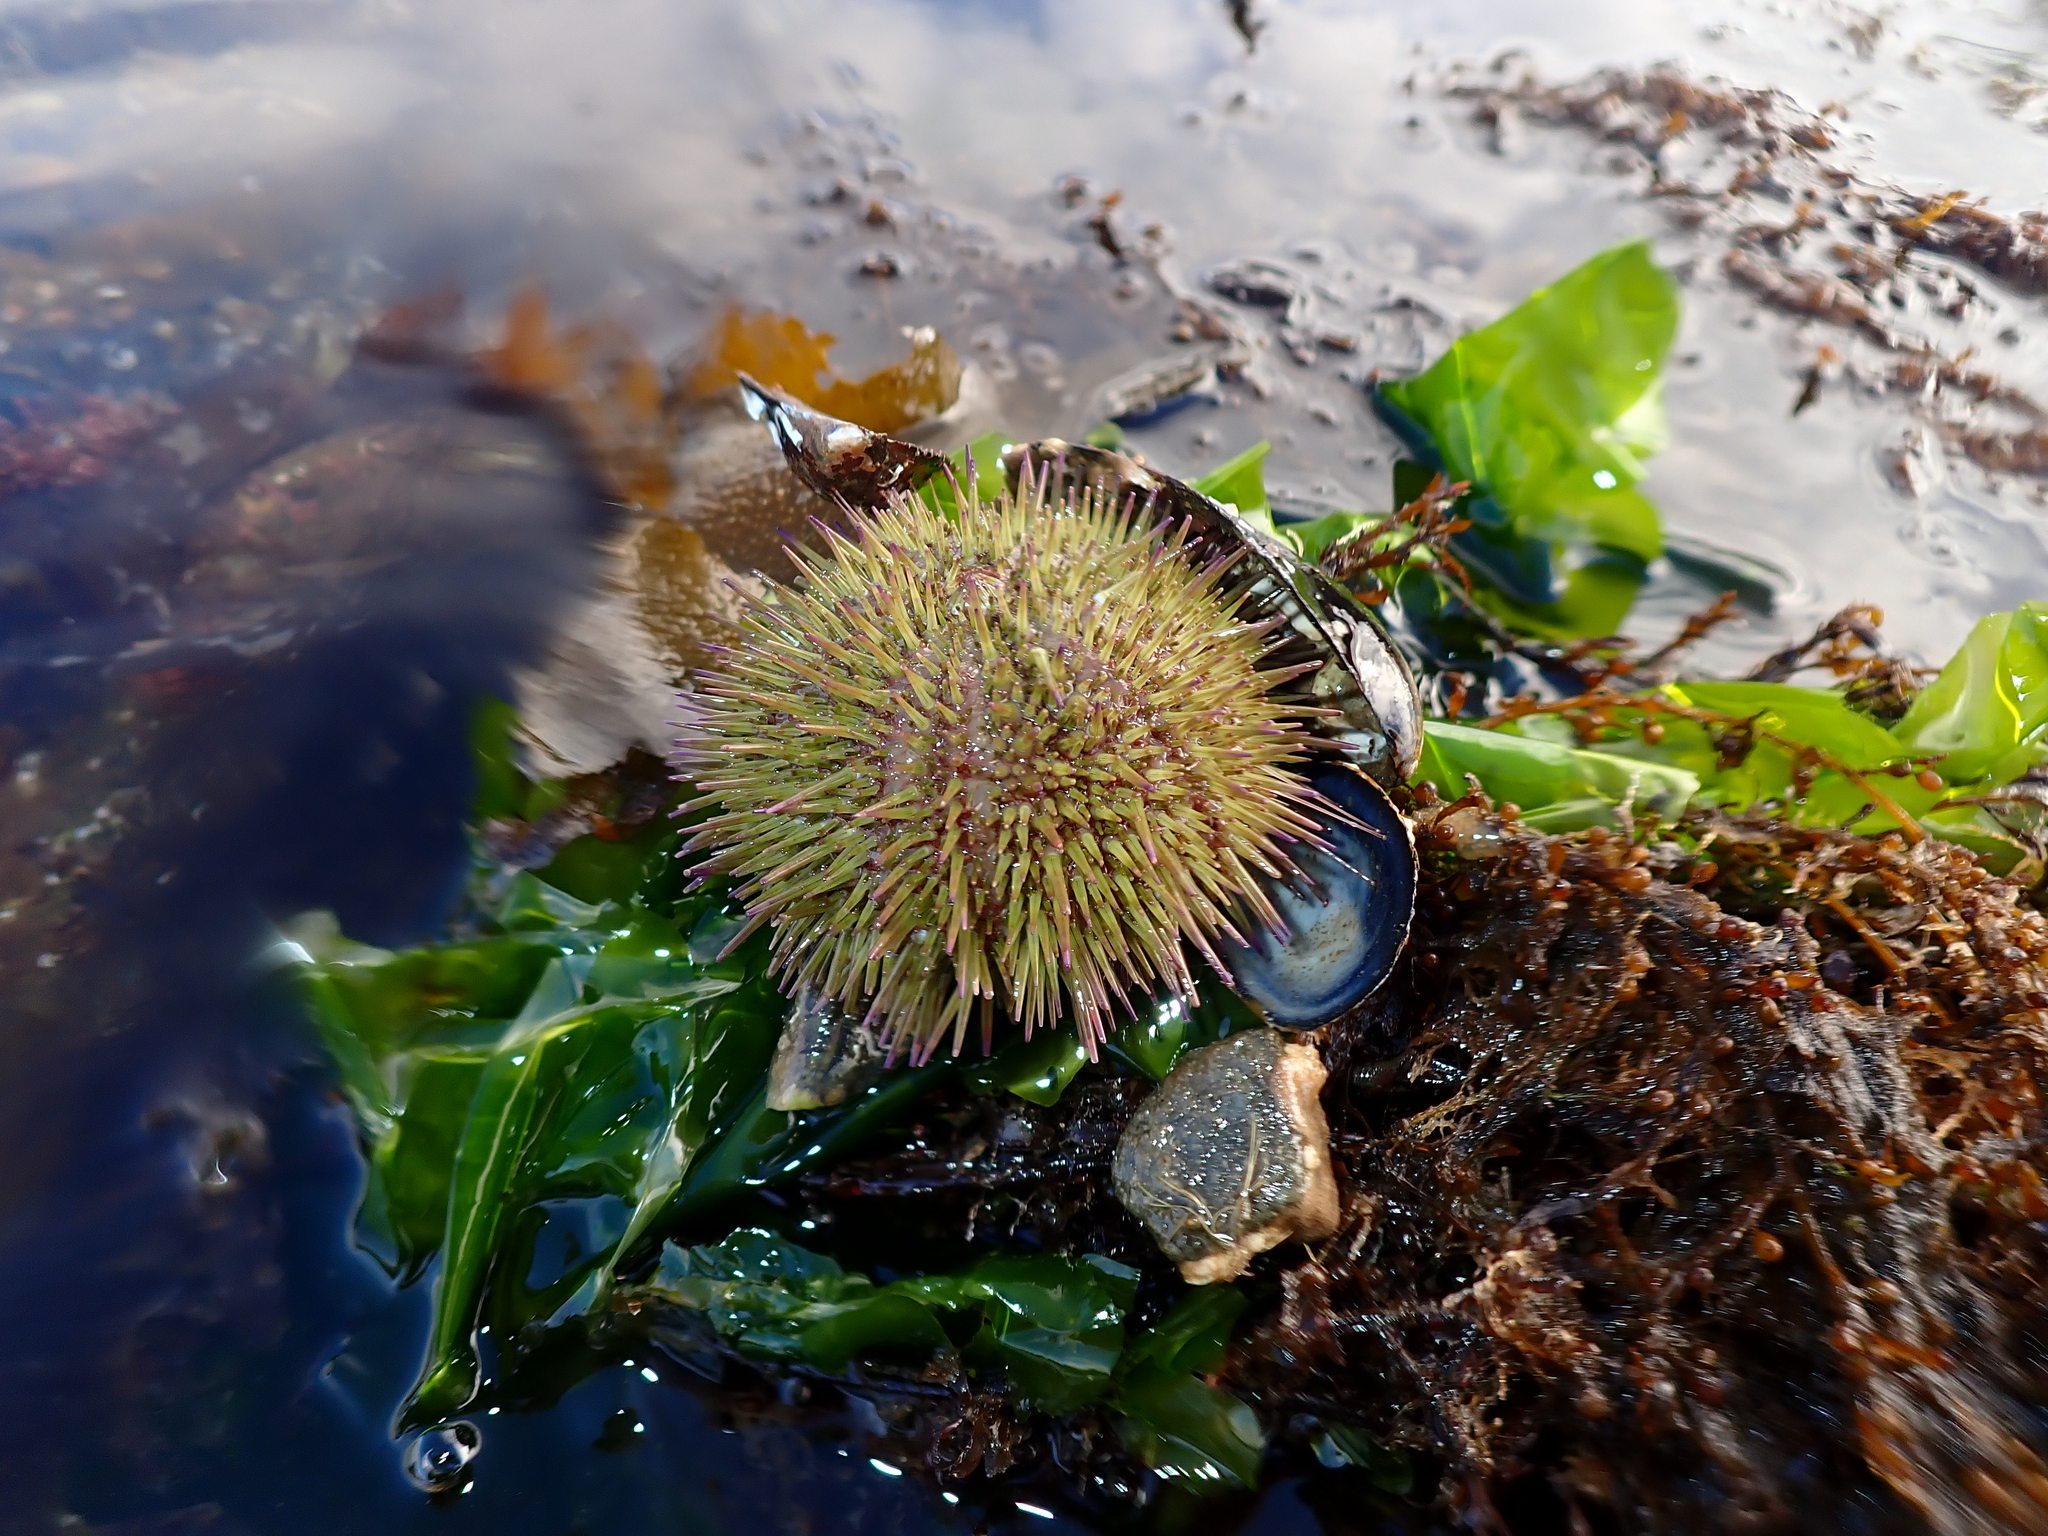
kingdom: Animalia
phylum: Echinodermata
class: Echinoidea
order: Camarodonta
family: Parechinidae
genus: Psammechinus
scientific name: Psammechinus miliaris
